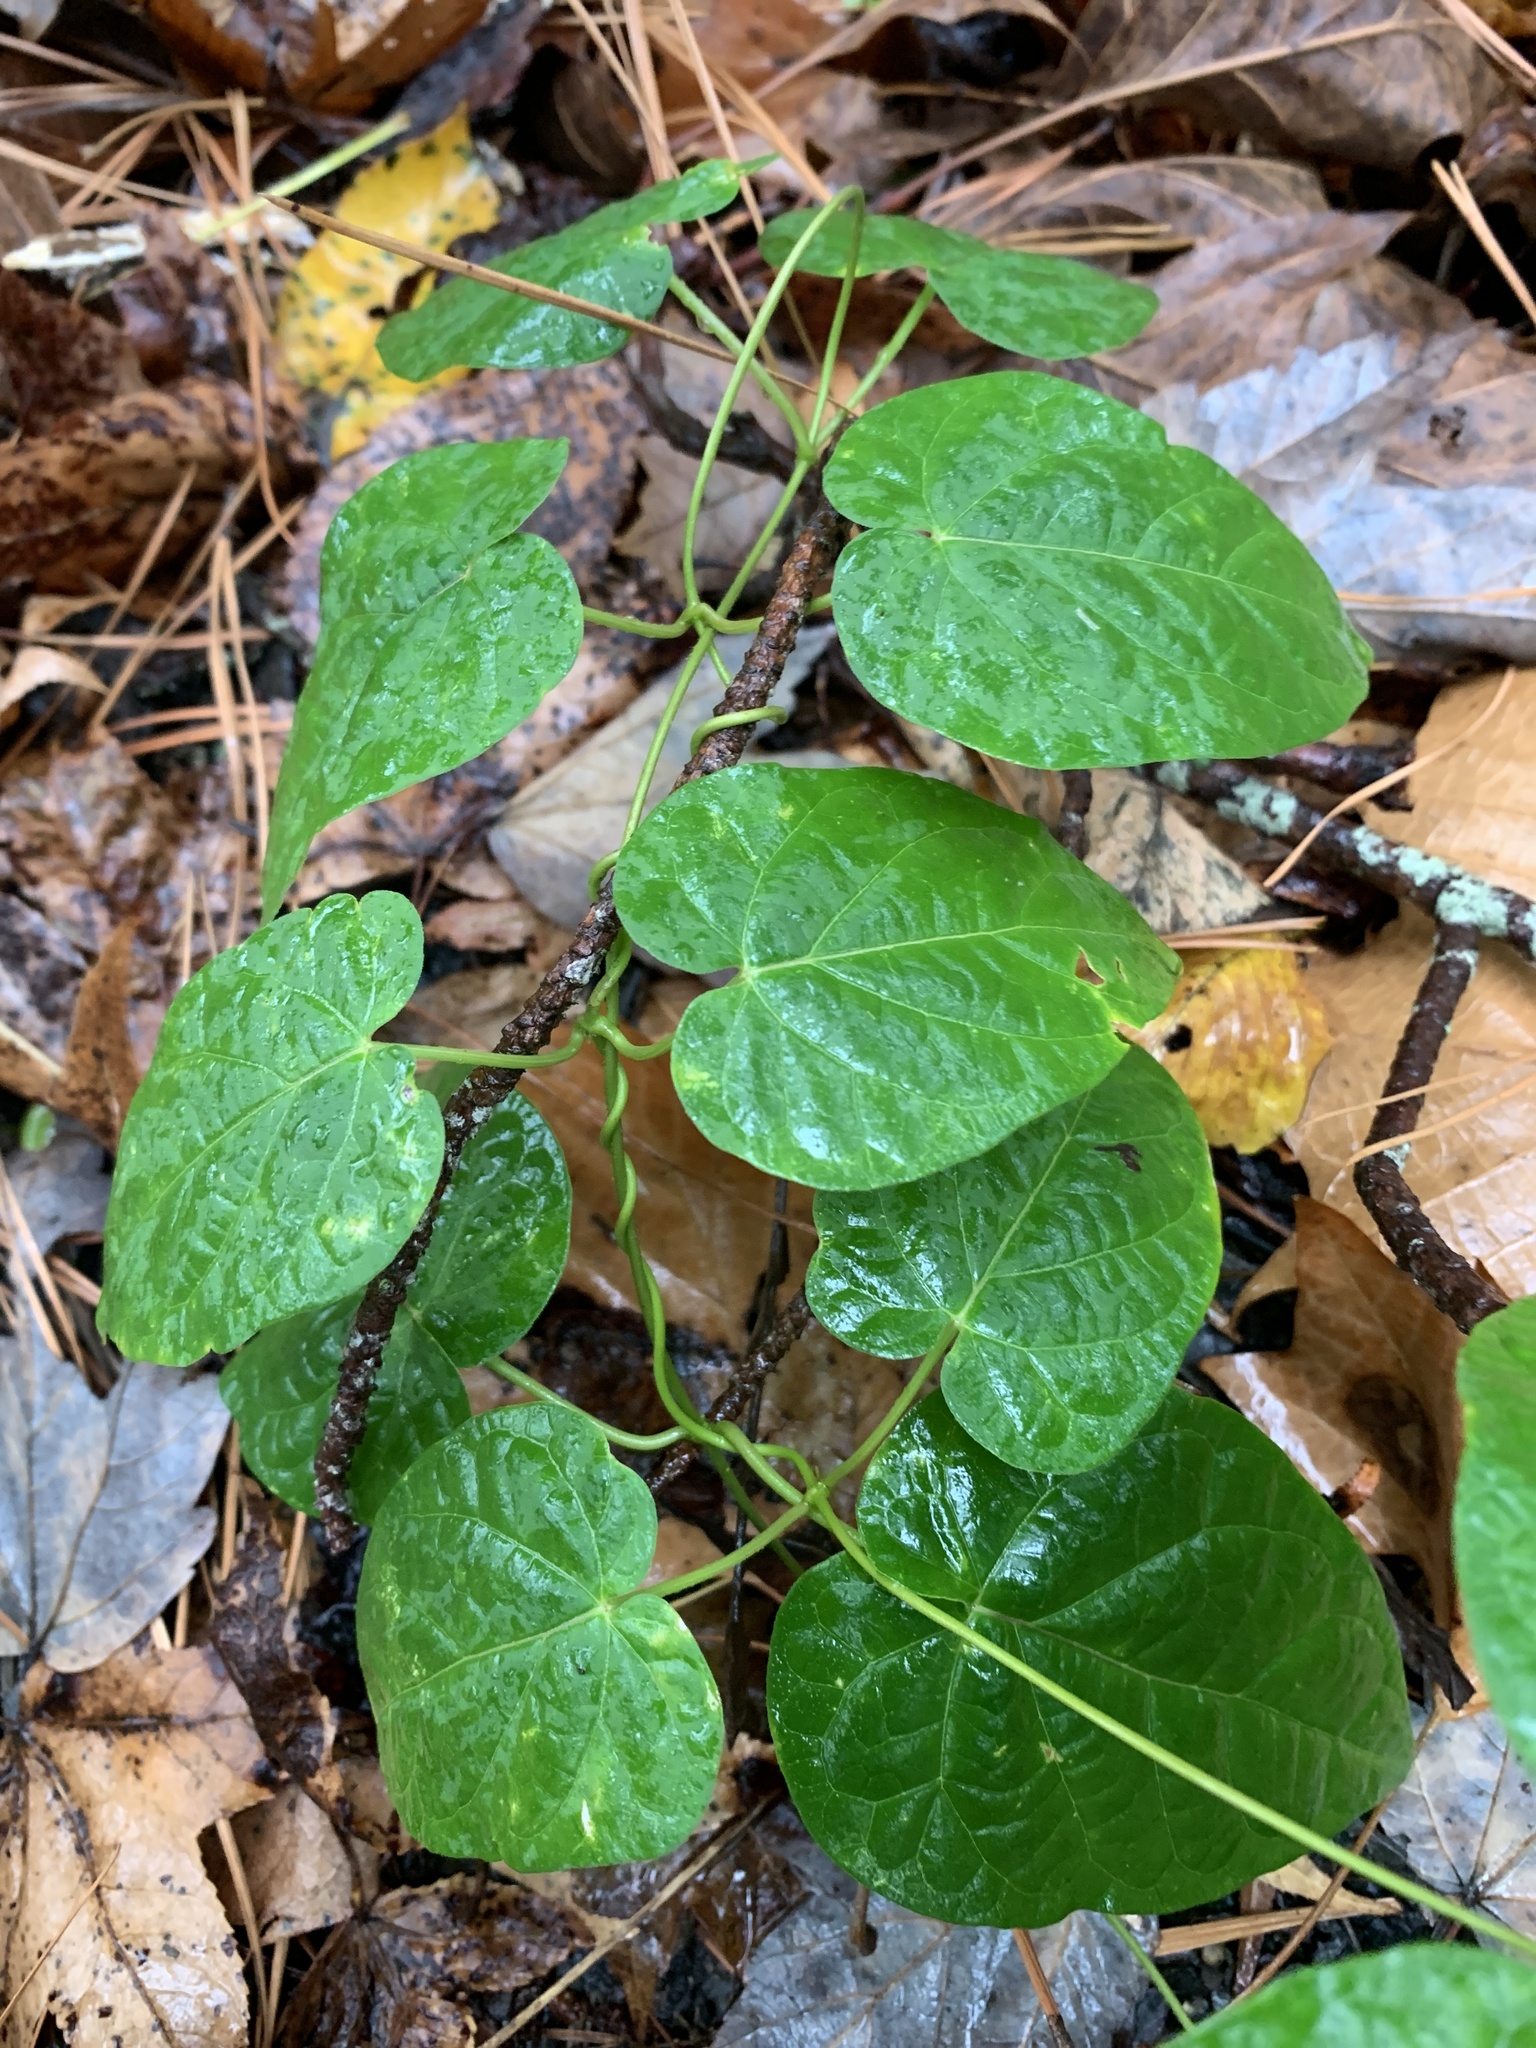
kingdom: Plantae
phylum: Tracheophyta
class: Magnoliopsida
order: Gentianales
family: Apocynaceae
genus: Gonolobus
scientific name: Gonolobus suberosus
